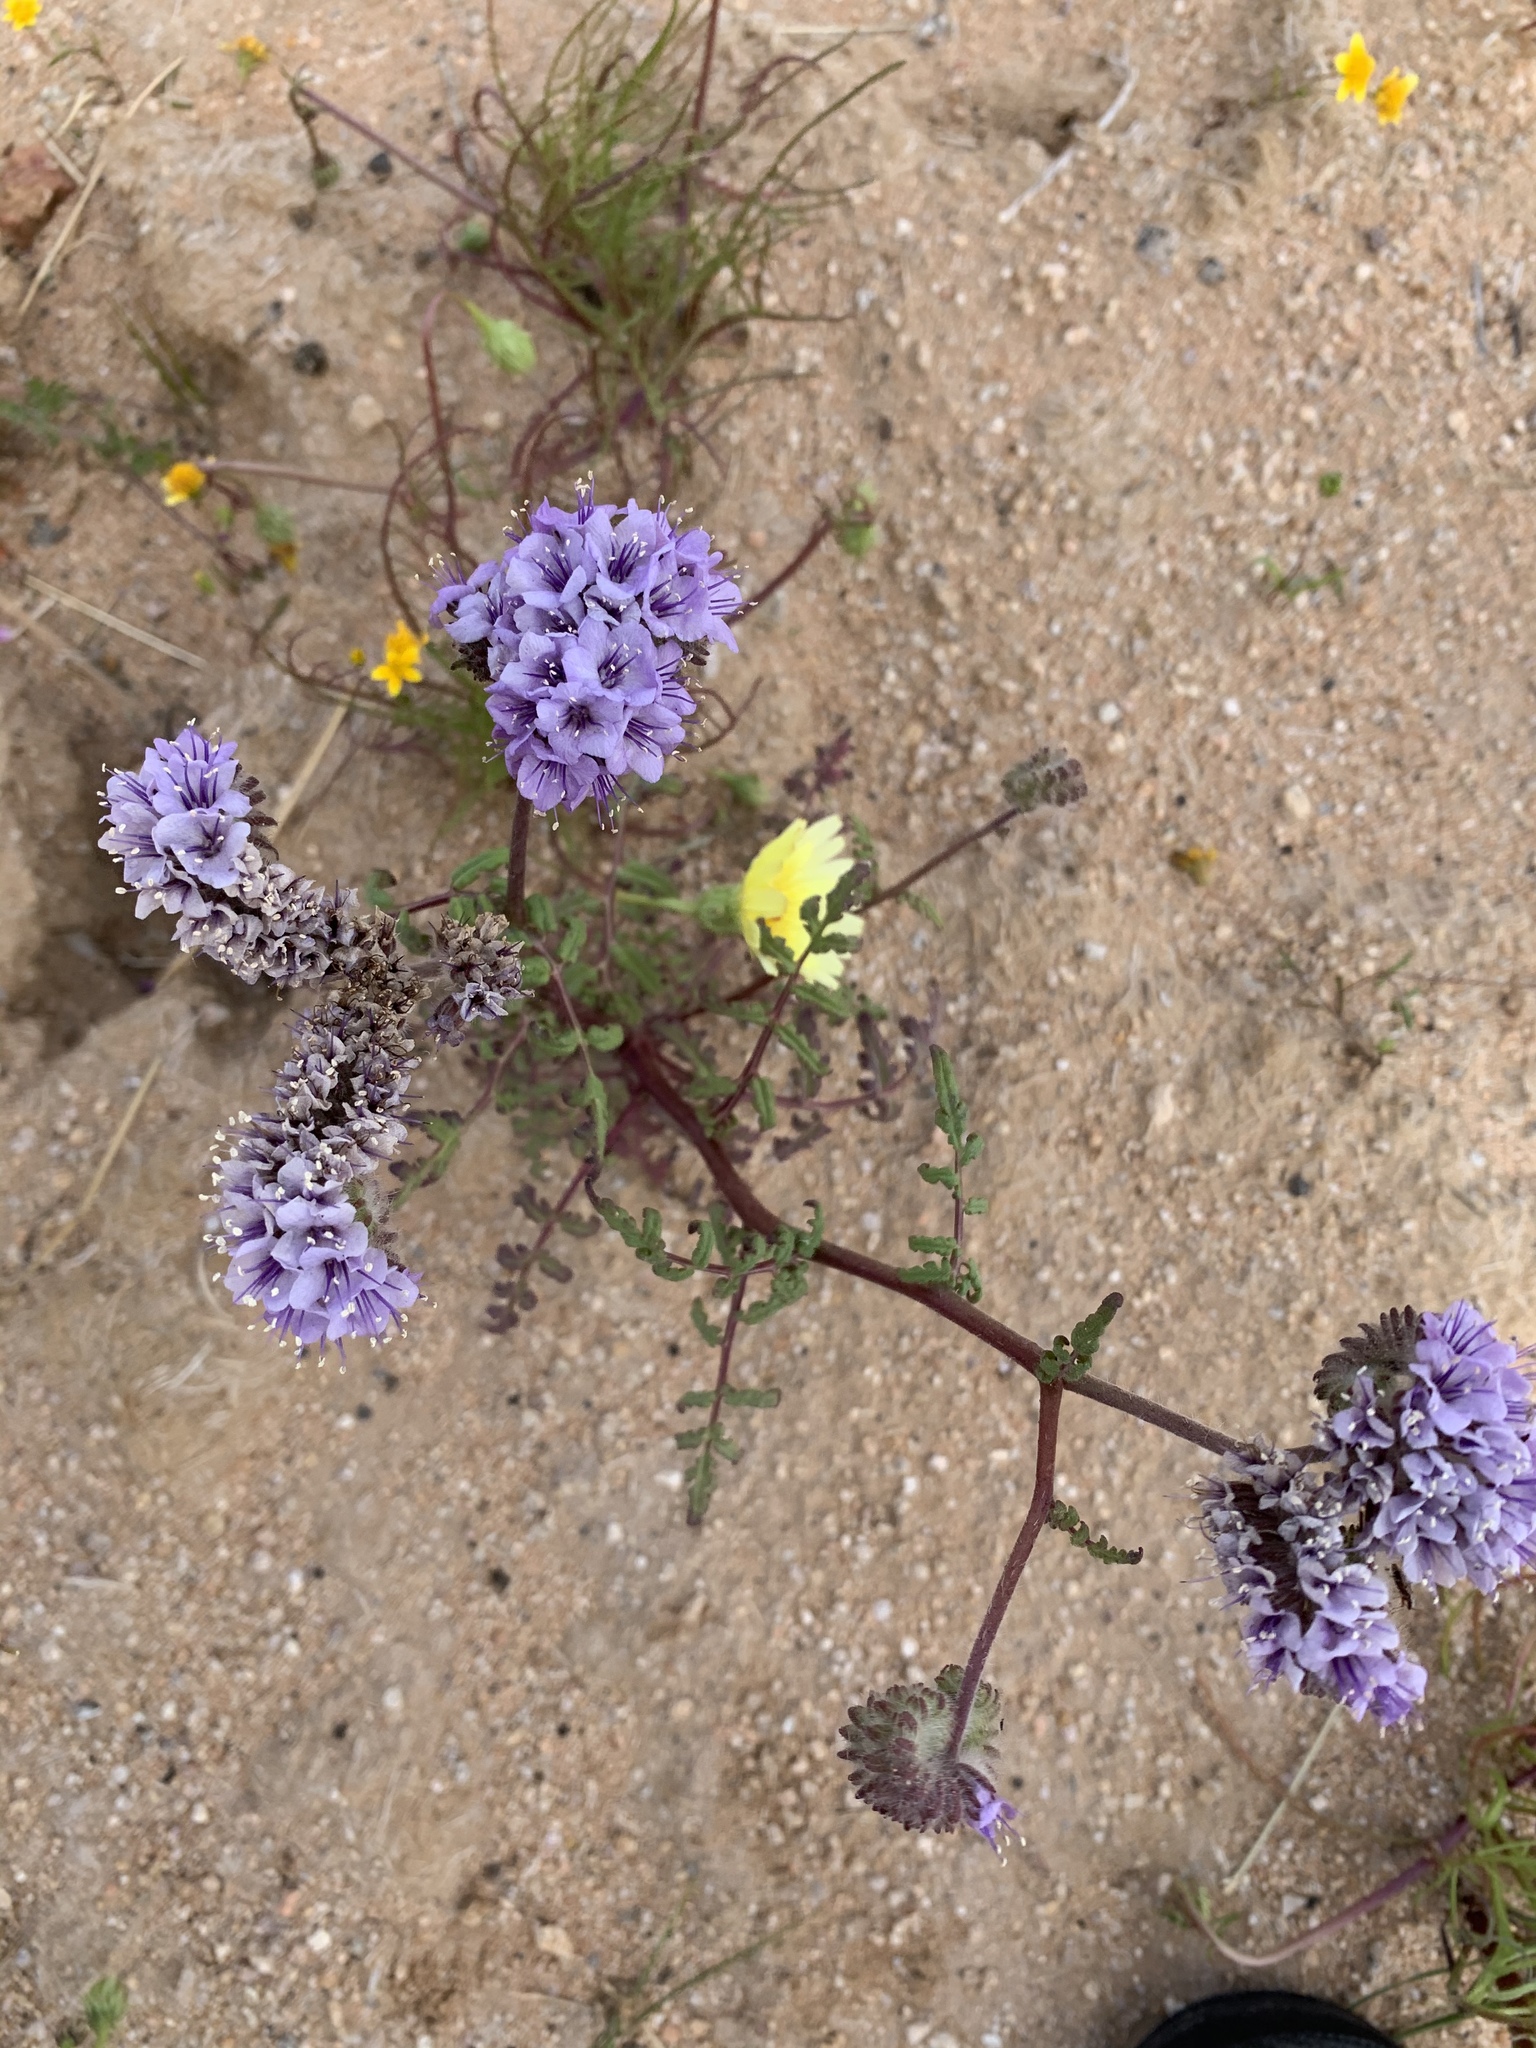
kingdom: Plantae
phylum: Tracheophyta
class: Magnoliopsida
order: Boraginales
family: Hydrophyllaceae
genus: Phacelia
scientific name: Phacelia tanacetifolia
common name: Phacelia
